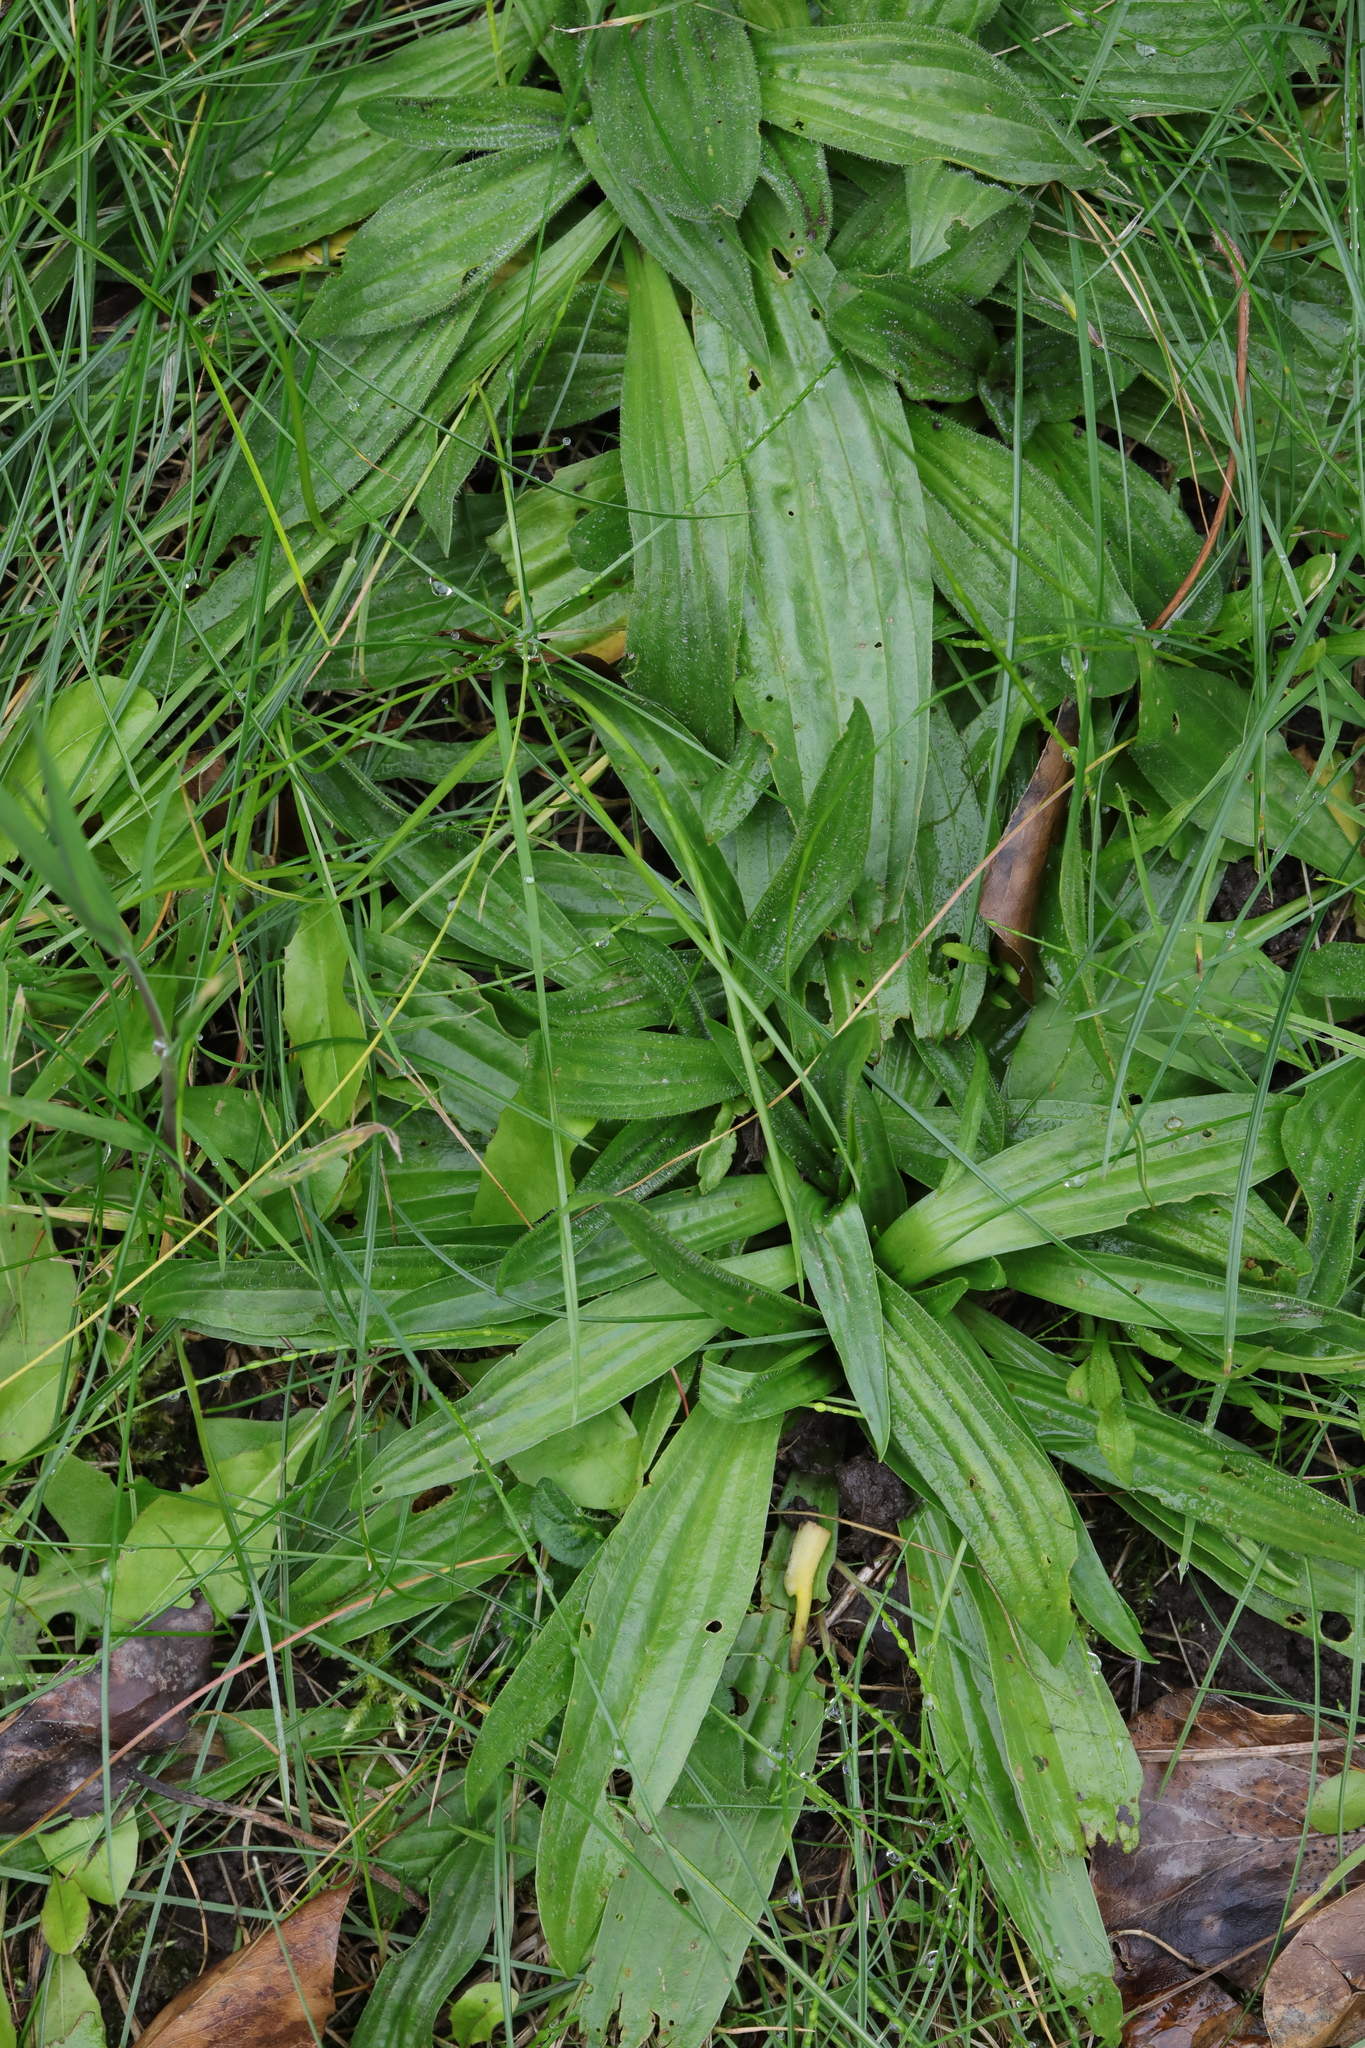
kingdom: Plantae
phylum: Tracheophyta
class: Magnoliopsida
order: Lamiales
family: Plantaginaceae
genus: Plantago
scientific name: Plantago lanceolata
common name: Ribwort plantain
